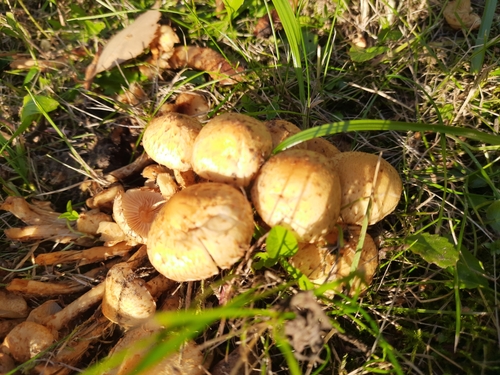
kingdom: Fungi
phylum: Basidiomycota
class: Agaricomycetes
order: Agaricales
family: Strophariaceae
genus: Pholiota
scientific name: Pholiota squarrosa
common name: Shaggy pholiota
